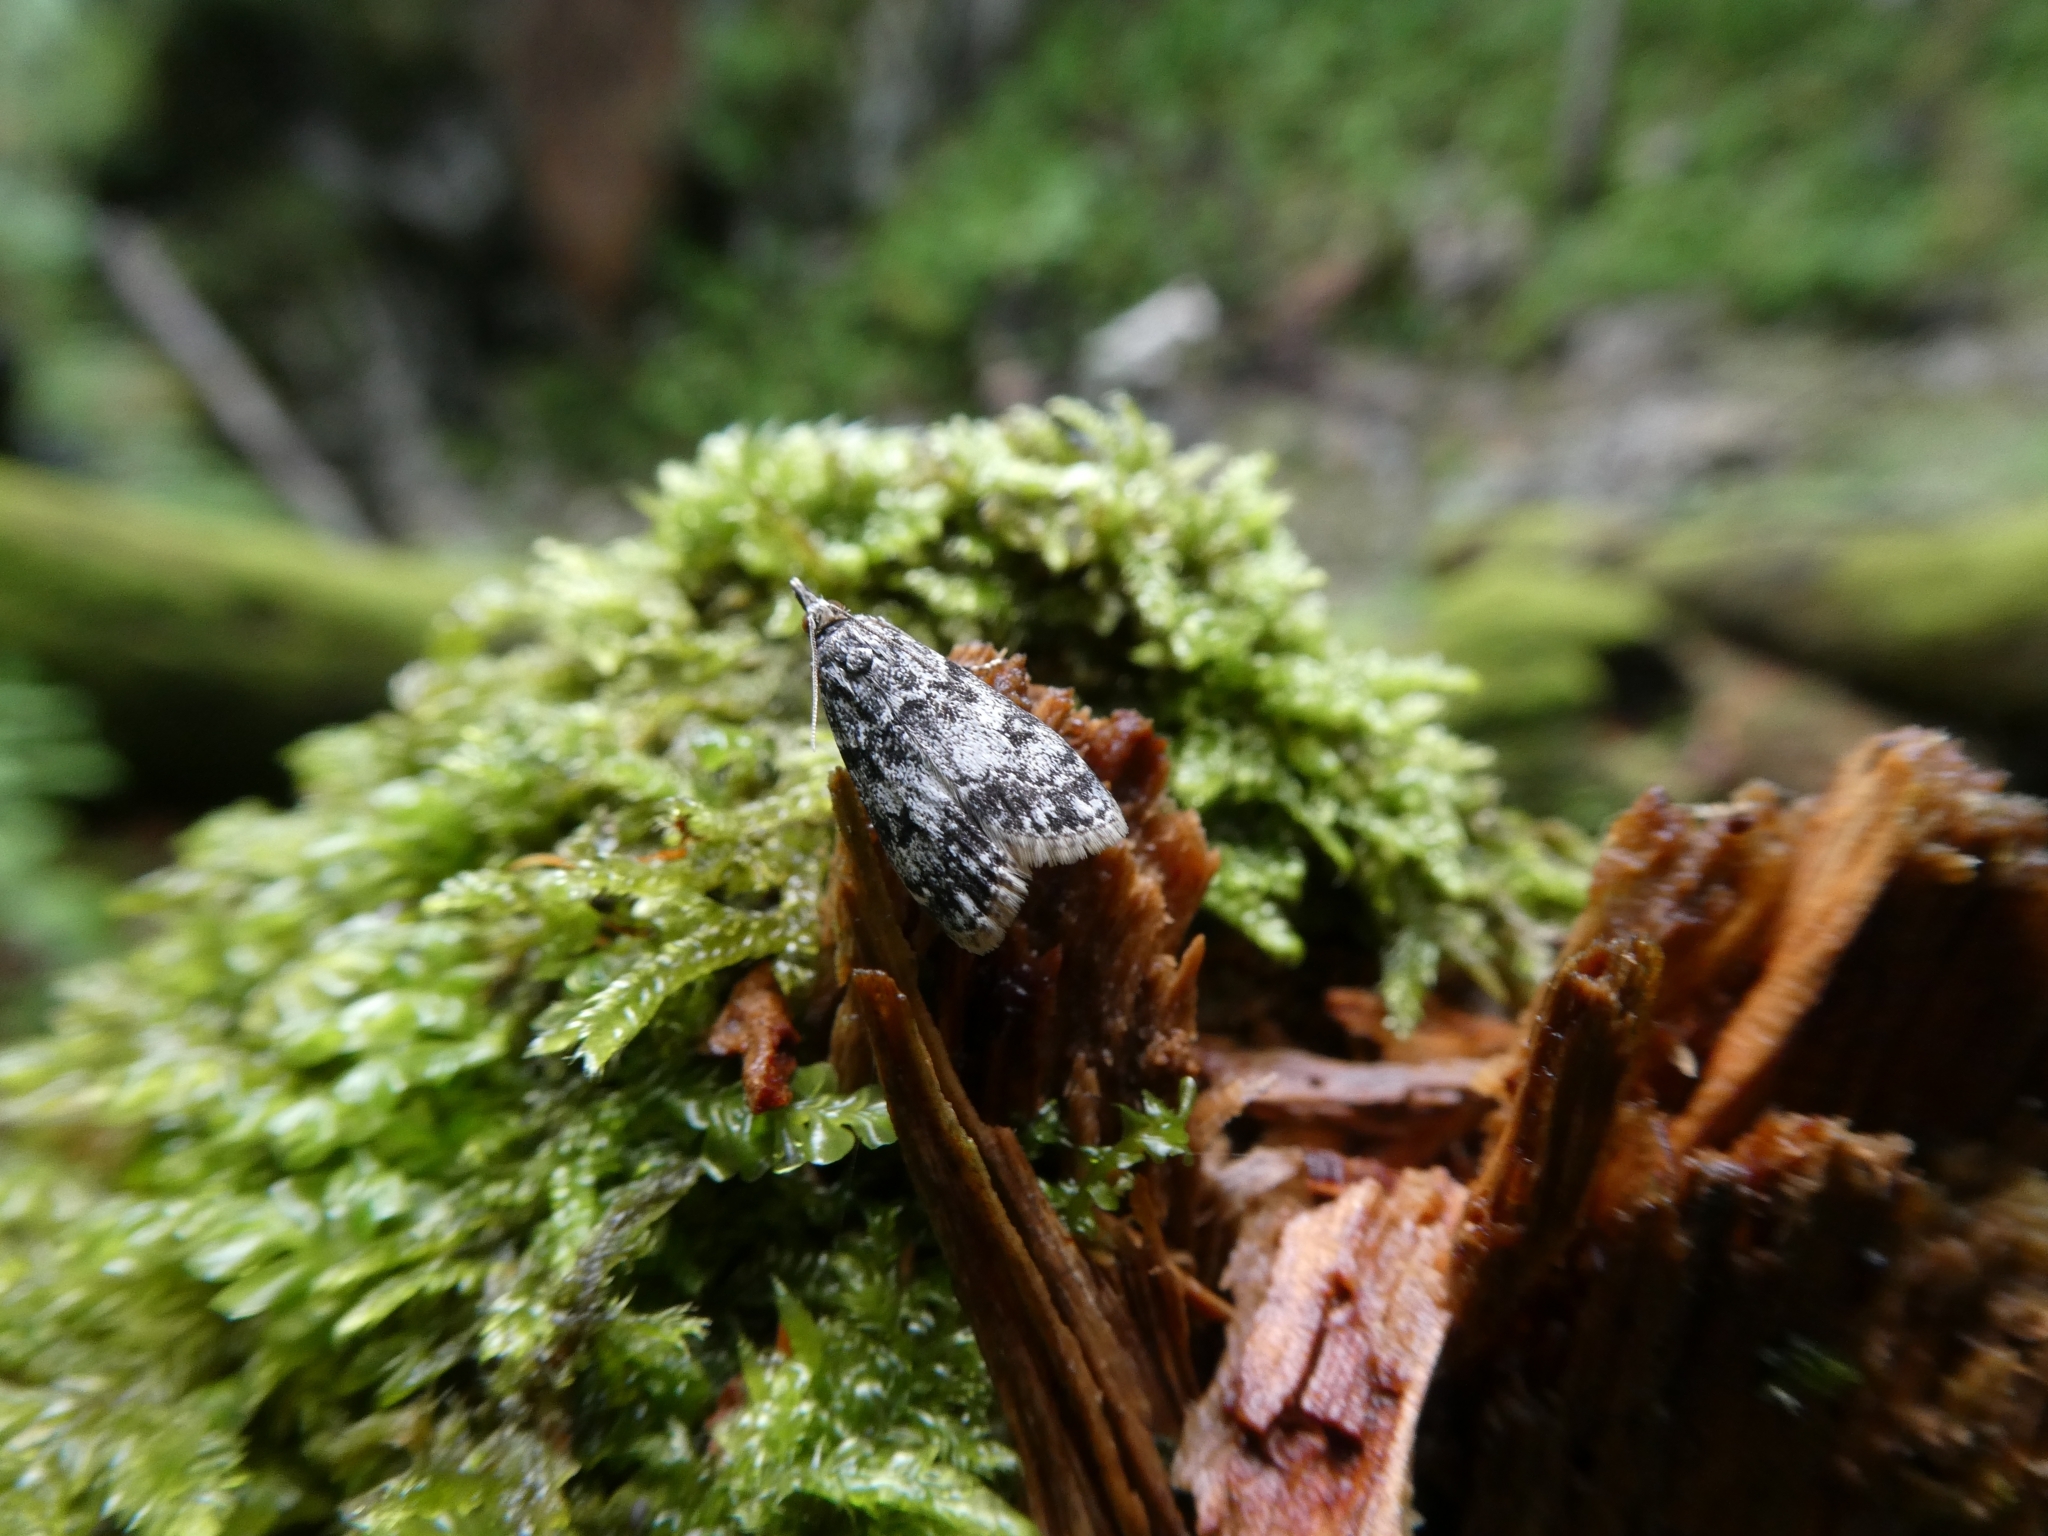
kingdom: Animalia
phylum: Arthropoda
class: Insecta
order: Lepidoptera
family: Crambidae
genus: Eudonia
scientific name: Eudonia lacustrata
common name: Little grey
